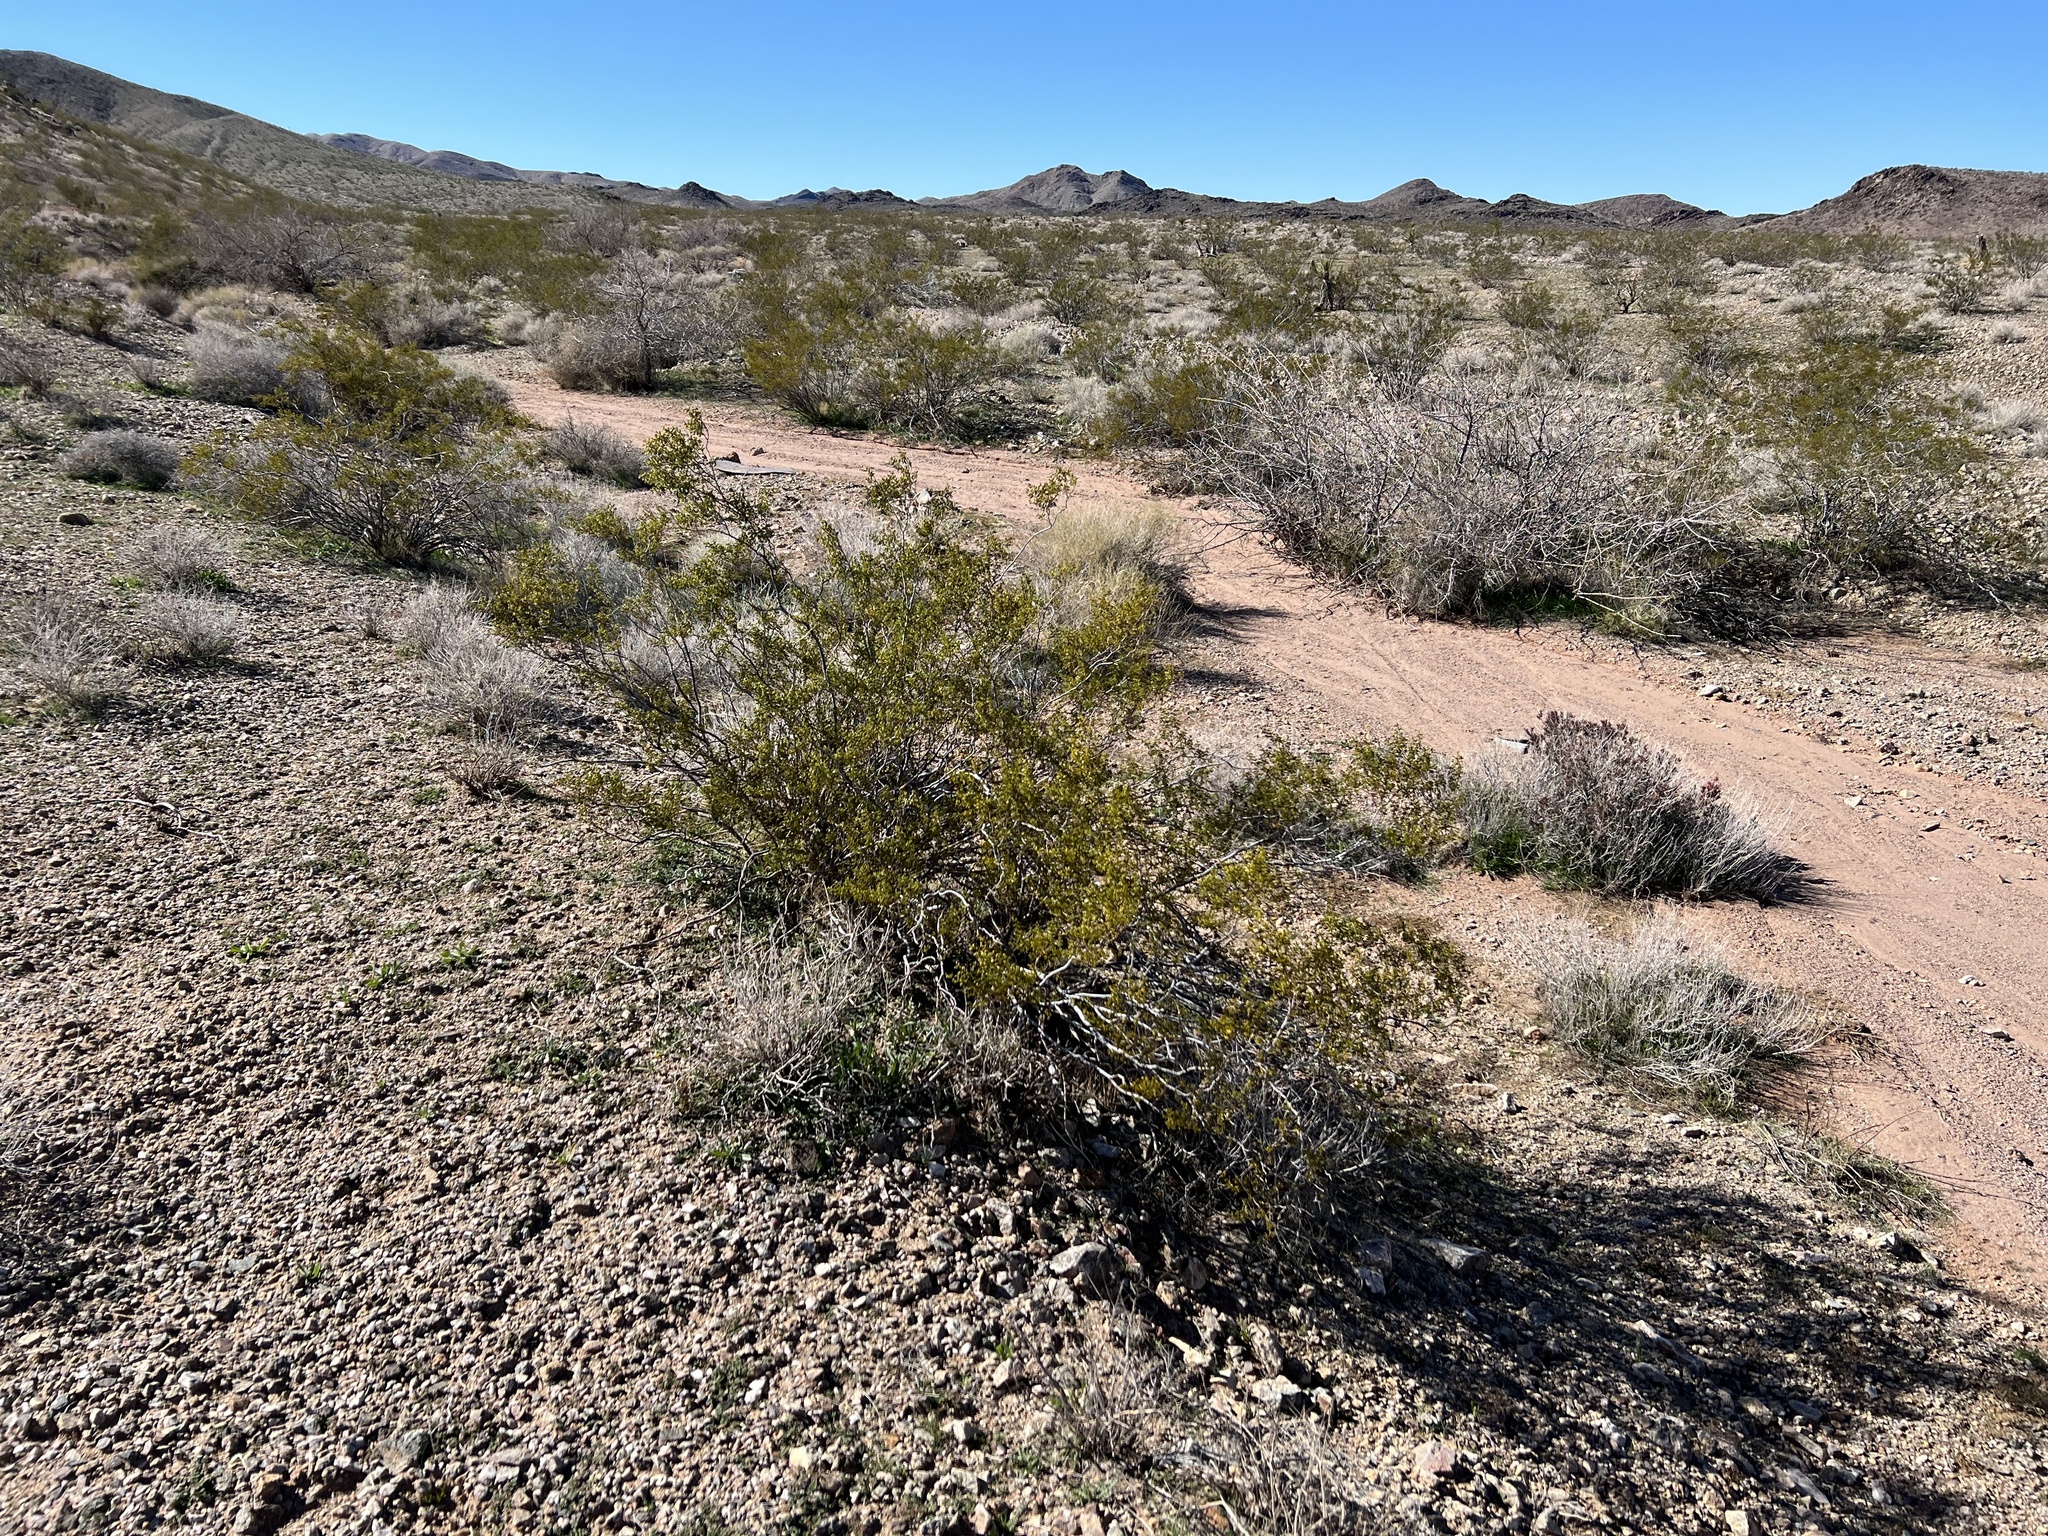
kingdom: Plantae
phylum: Tracheophyta
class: Magnoliopsida
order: Zygophyllales
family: Zygophyllaceae
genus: Larrea
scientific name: Larrea tridentata
